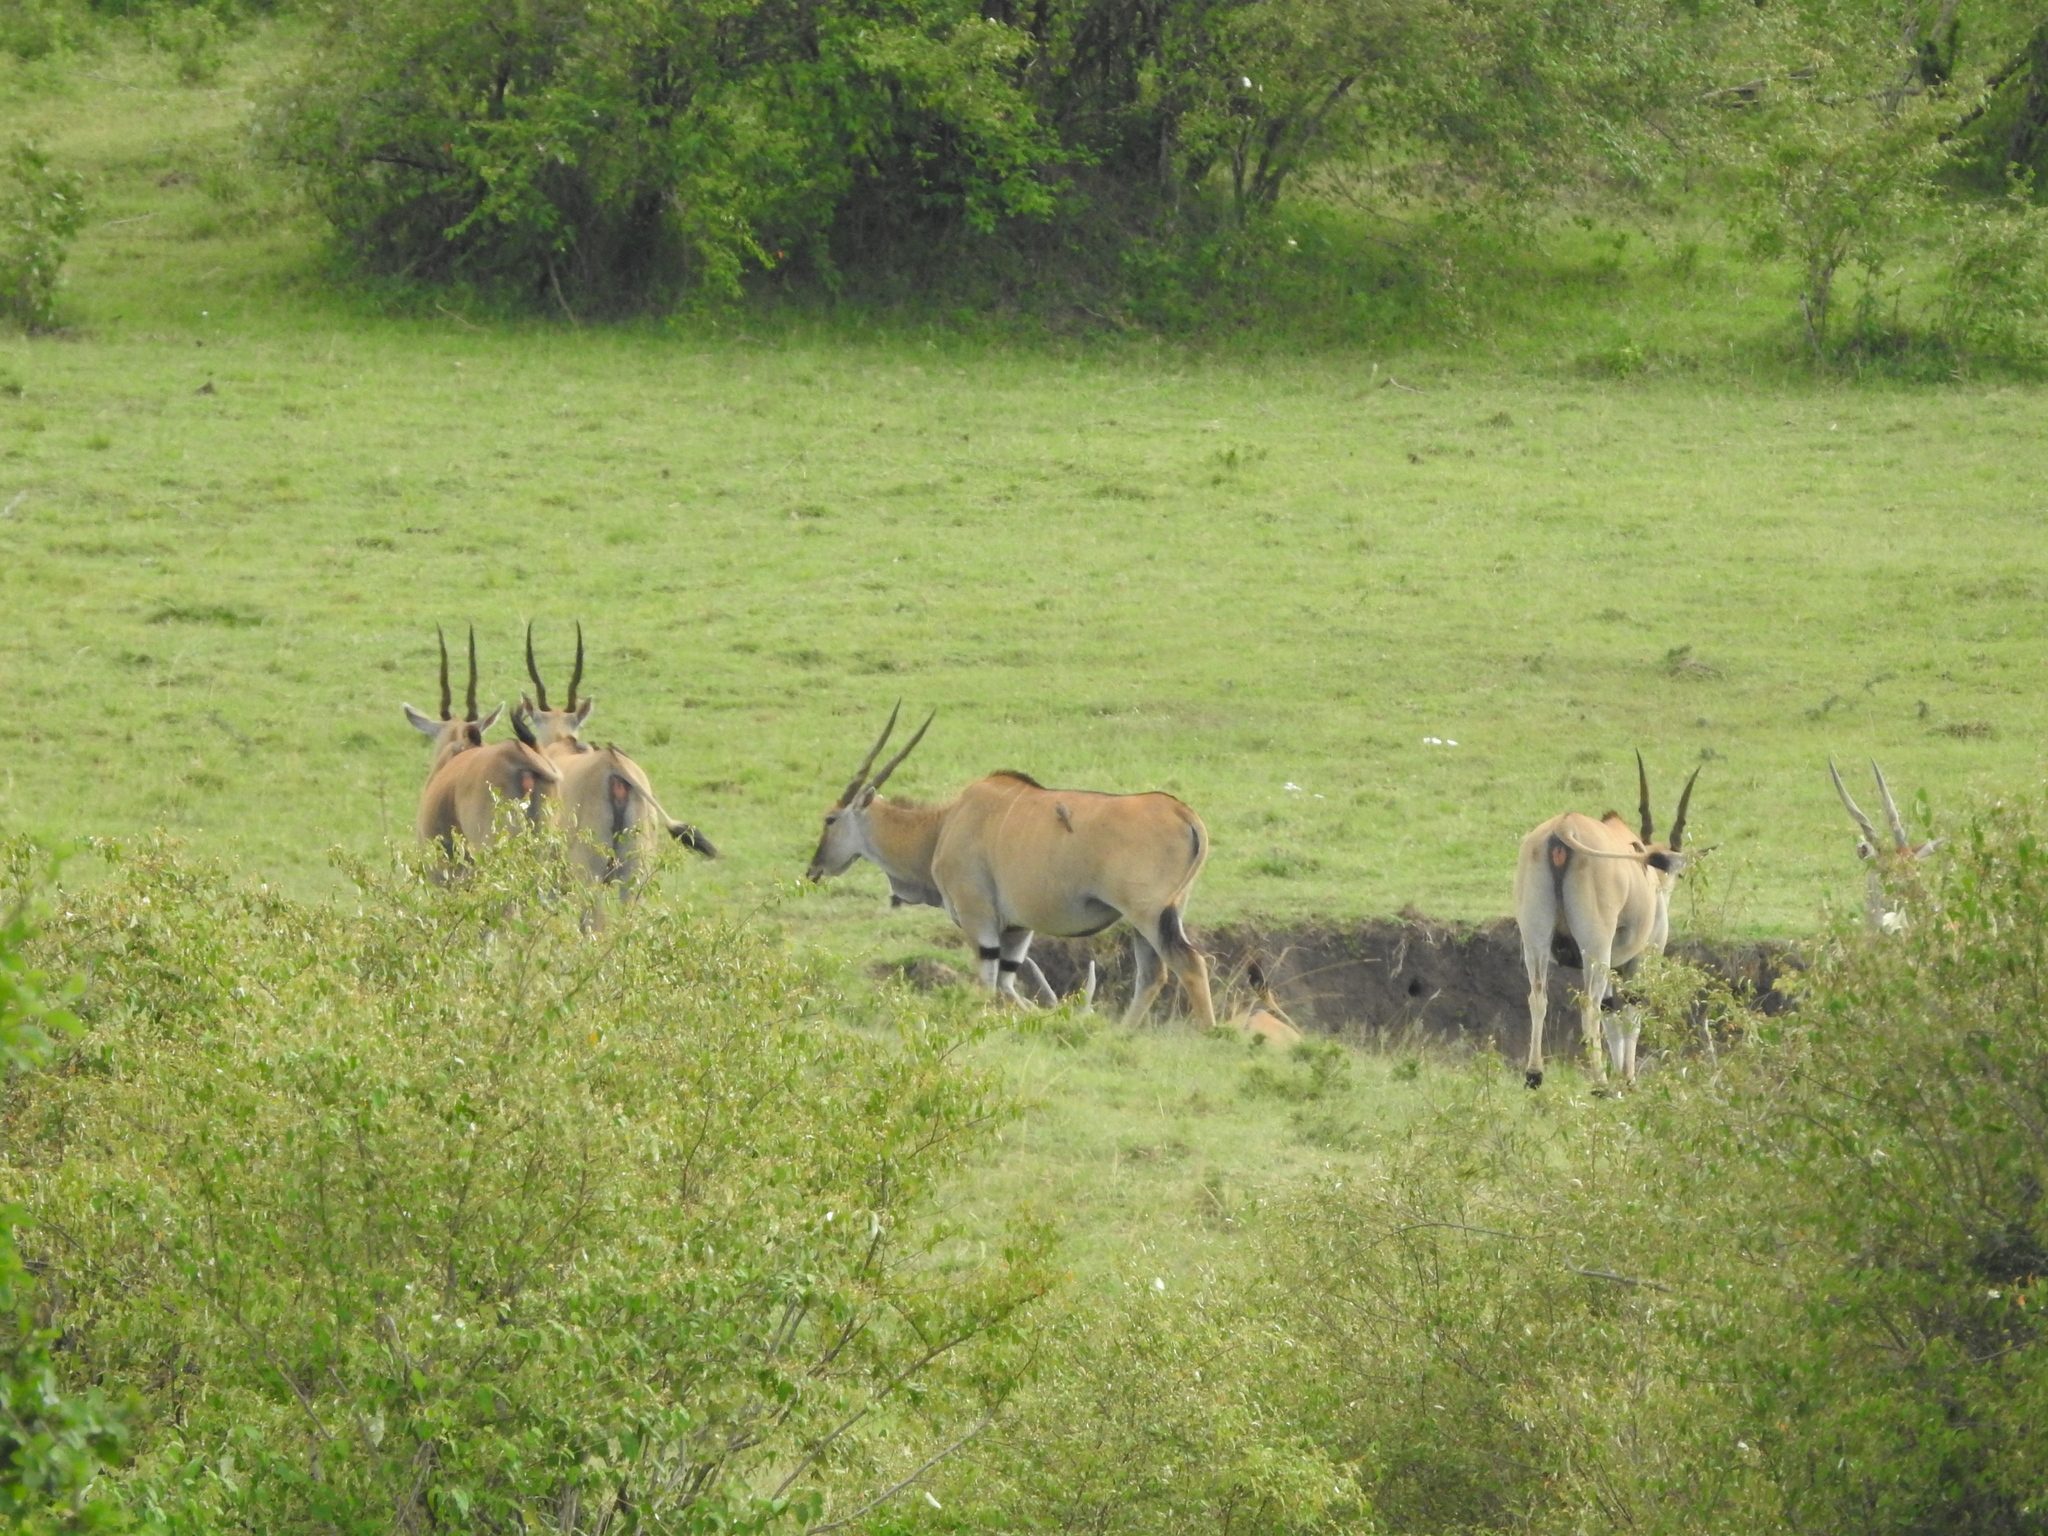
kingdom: Animalia
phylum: Chordata
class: Mammalia
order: Artiodactyla
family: Bovidae
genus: Taurotragus
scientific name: Taurotragus oryx
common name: Common eland
